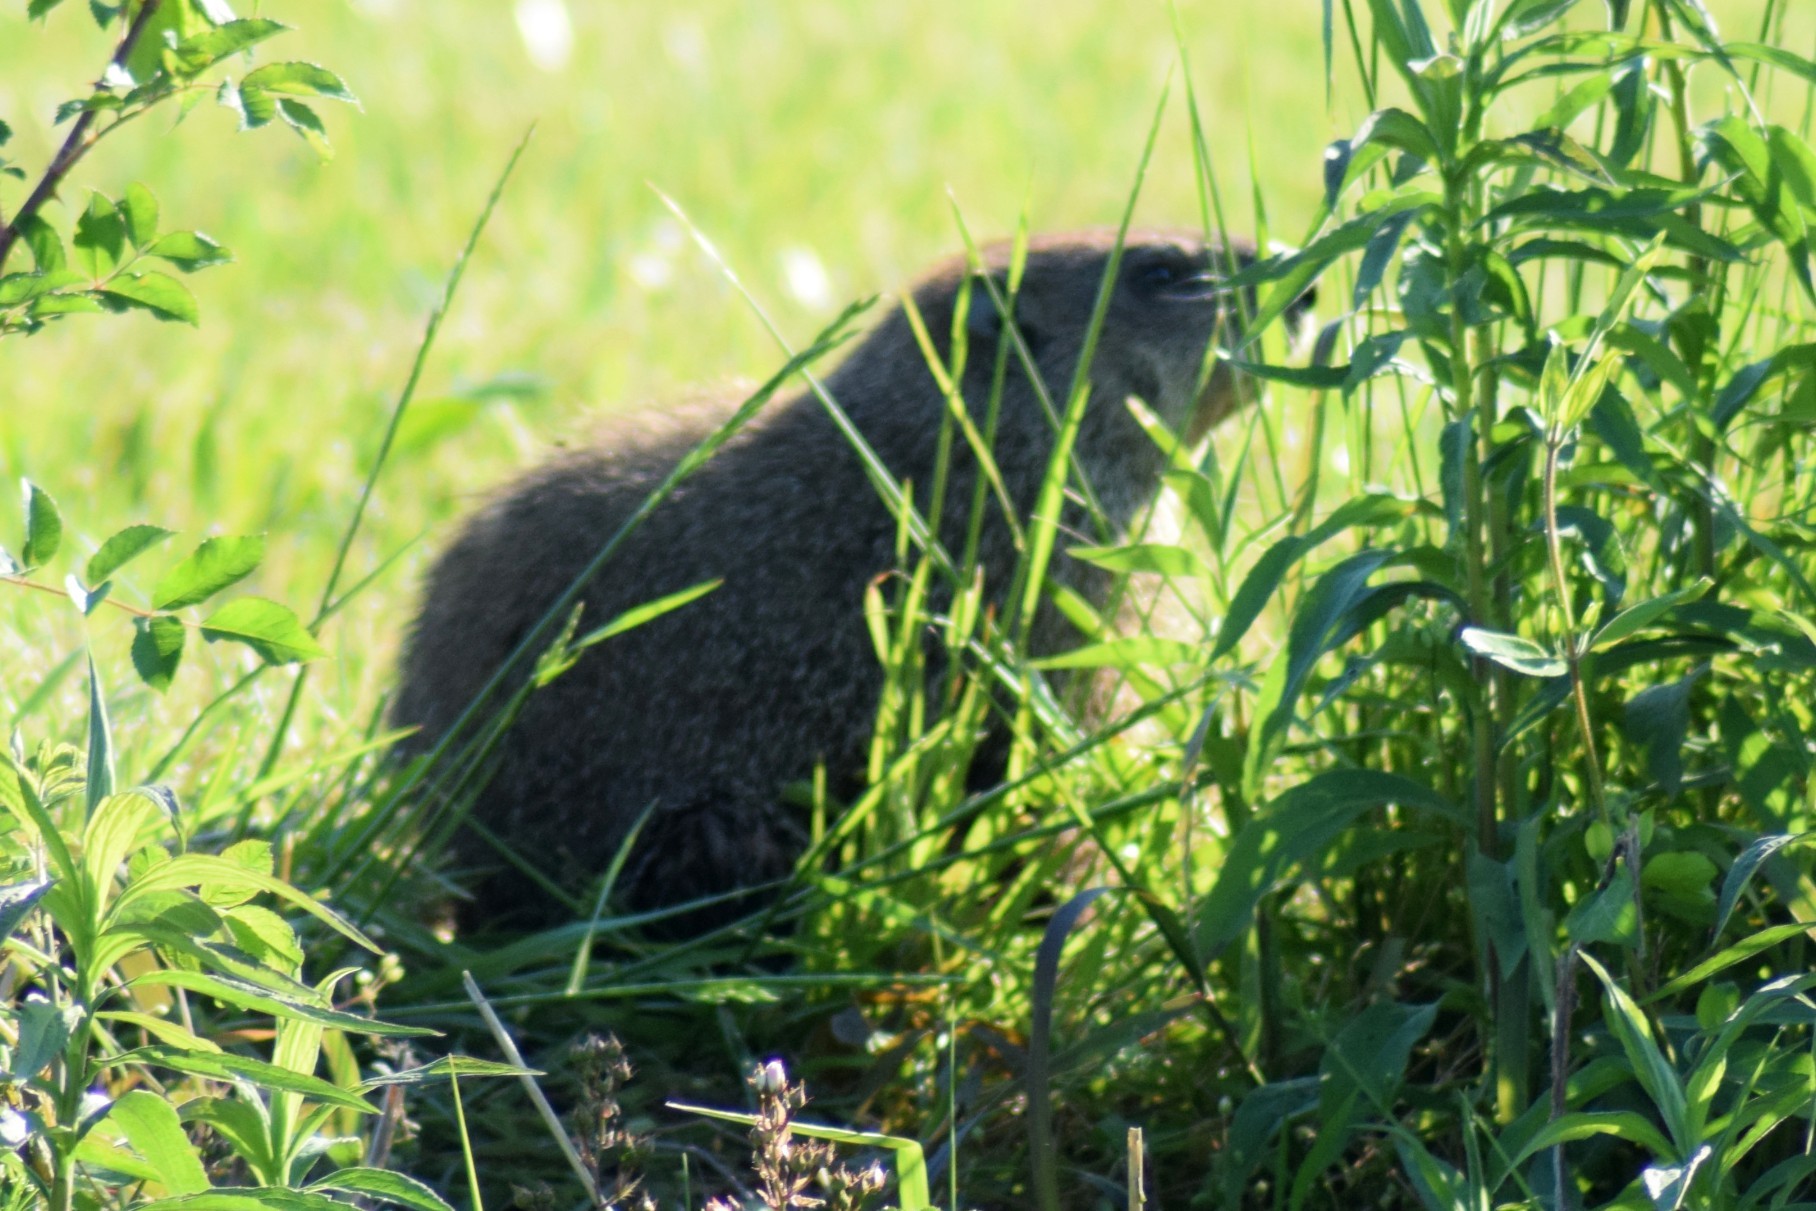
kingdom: Animalia
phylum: Chordata
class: Mammalia
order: Rodentia
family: Sciuridae
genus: Marmota
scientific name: Marmota monax
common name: Groundhog
